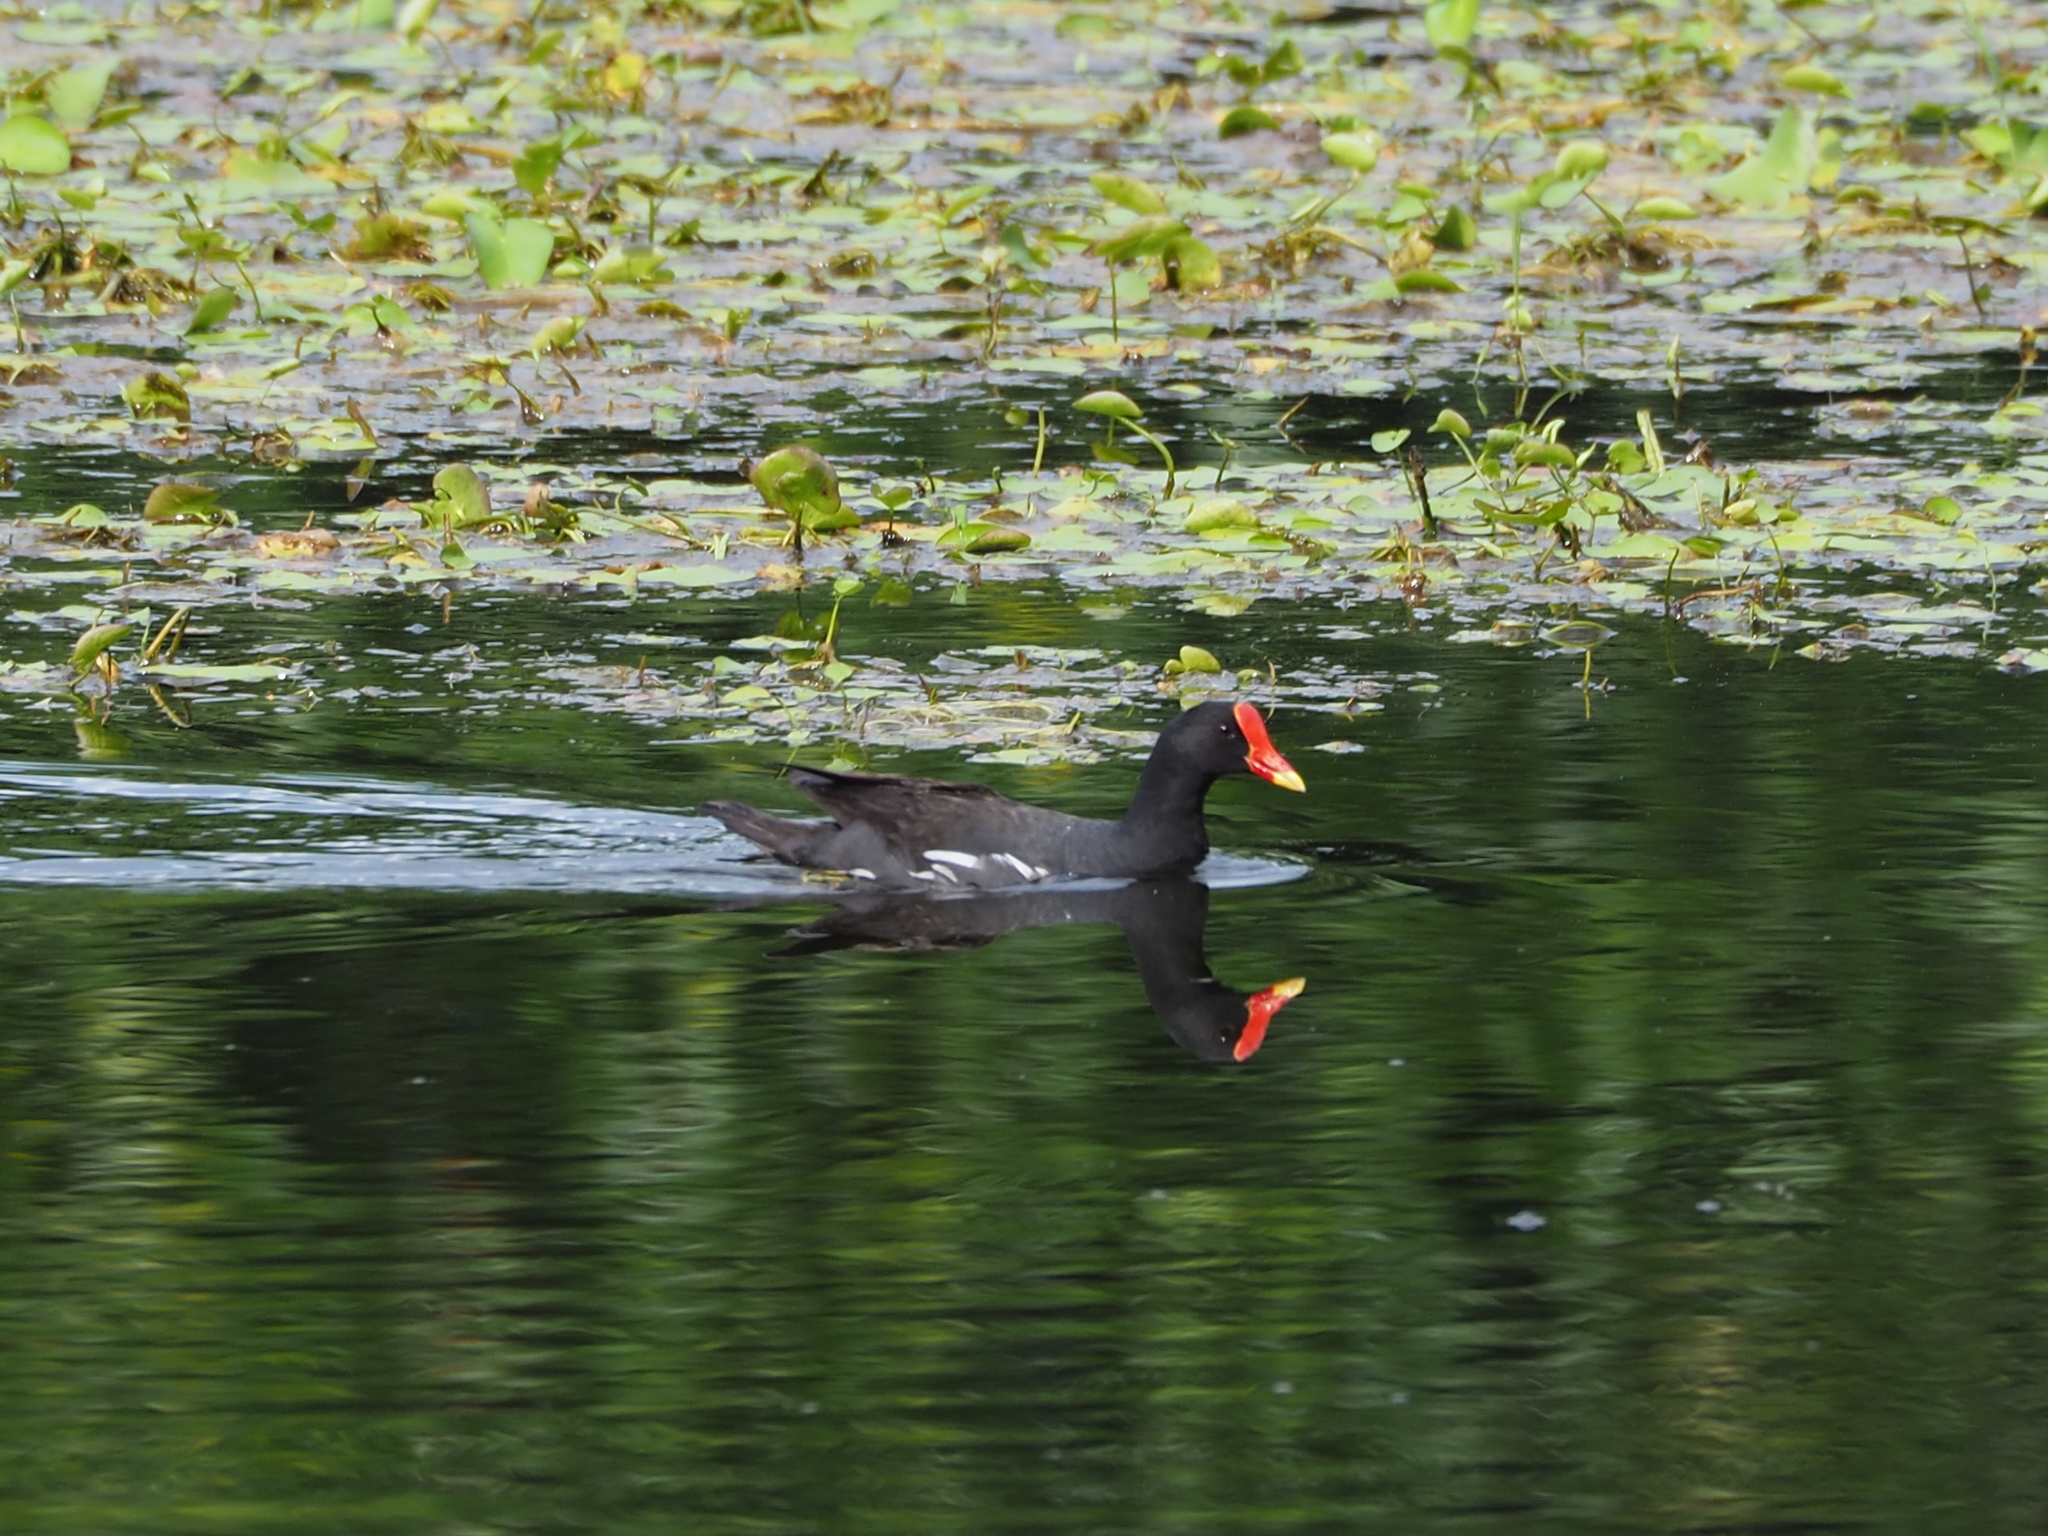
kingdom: Animalia
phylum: Chordata
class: Aves
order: Gruiformes
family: Rallidae
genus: Gallinula
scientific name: Gallinula chloropus
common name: Common moorhen
